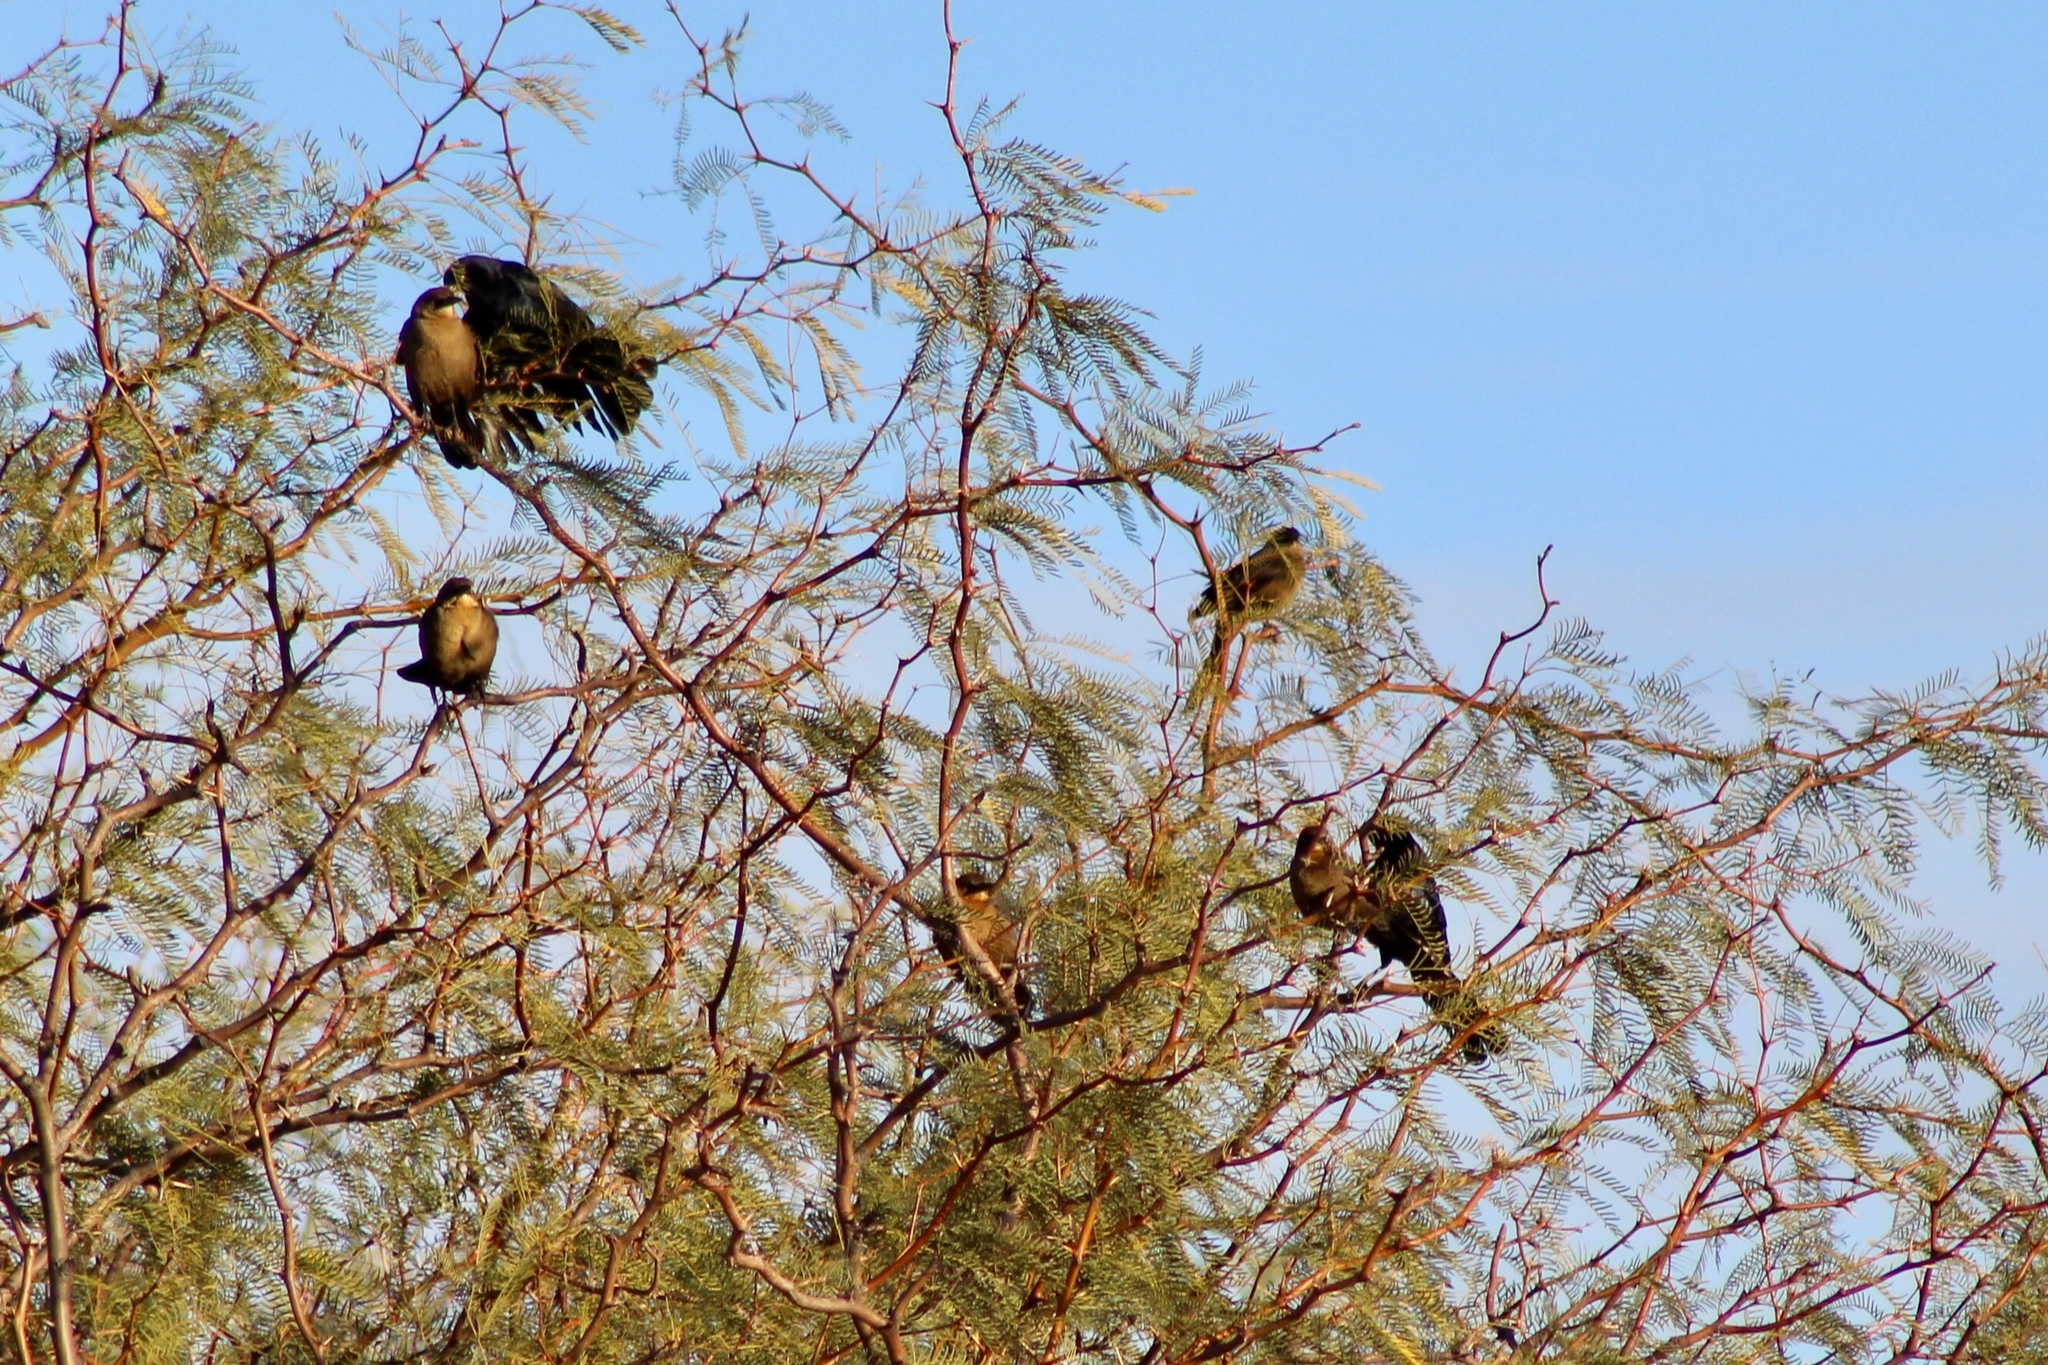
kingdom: Animalia
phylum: Chordata
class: Aves
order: Passeriformes
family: Icteridae
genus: Quiscalus
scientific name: Quiscalus mexicanus
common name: Great-tailed grackle
